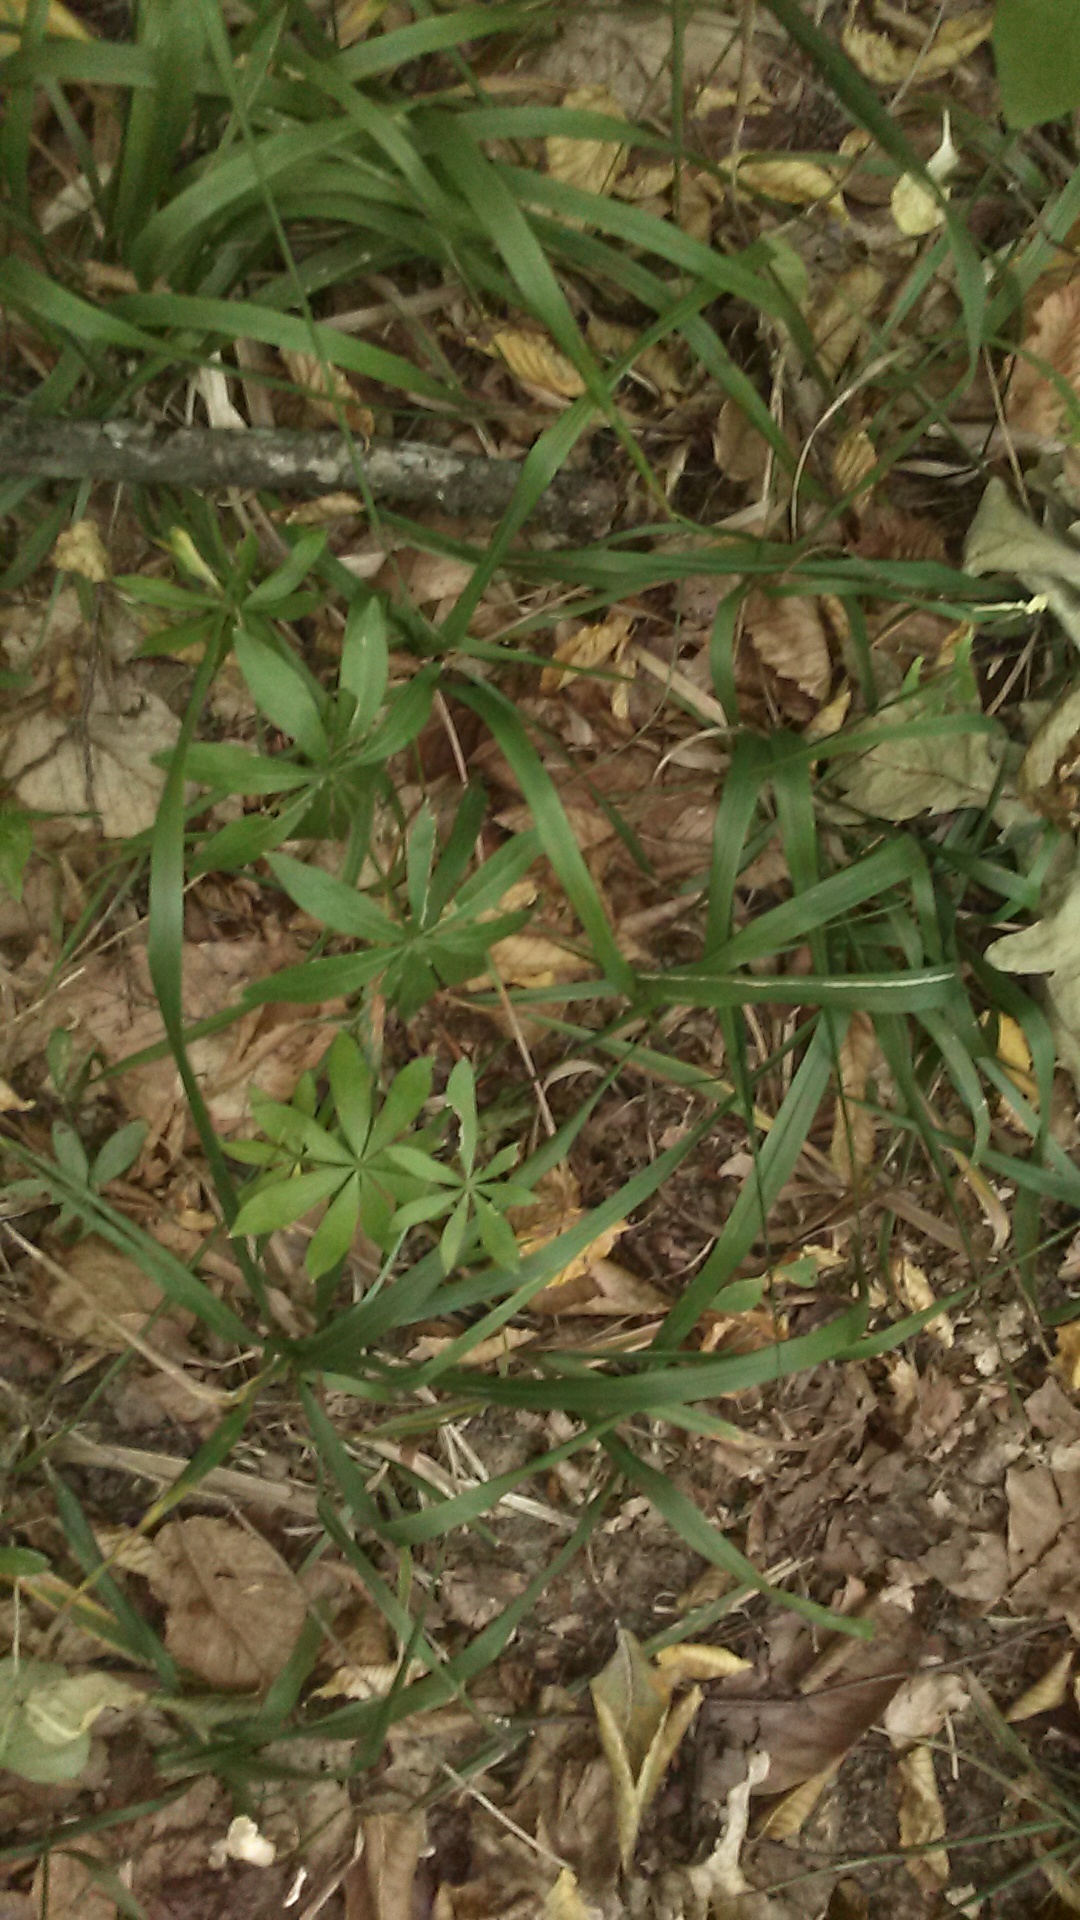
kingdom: Plantae
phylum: Tracheophyta
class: Magnoliopsida
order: Gentianales
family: Rubiaceae
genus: Galium
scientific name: Galium odoratum
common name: Sweet woodruff
